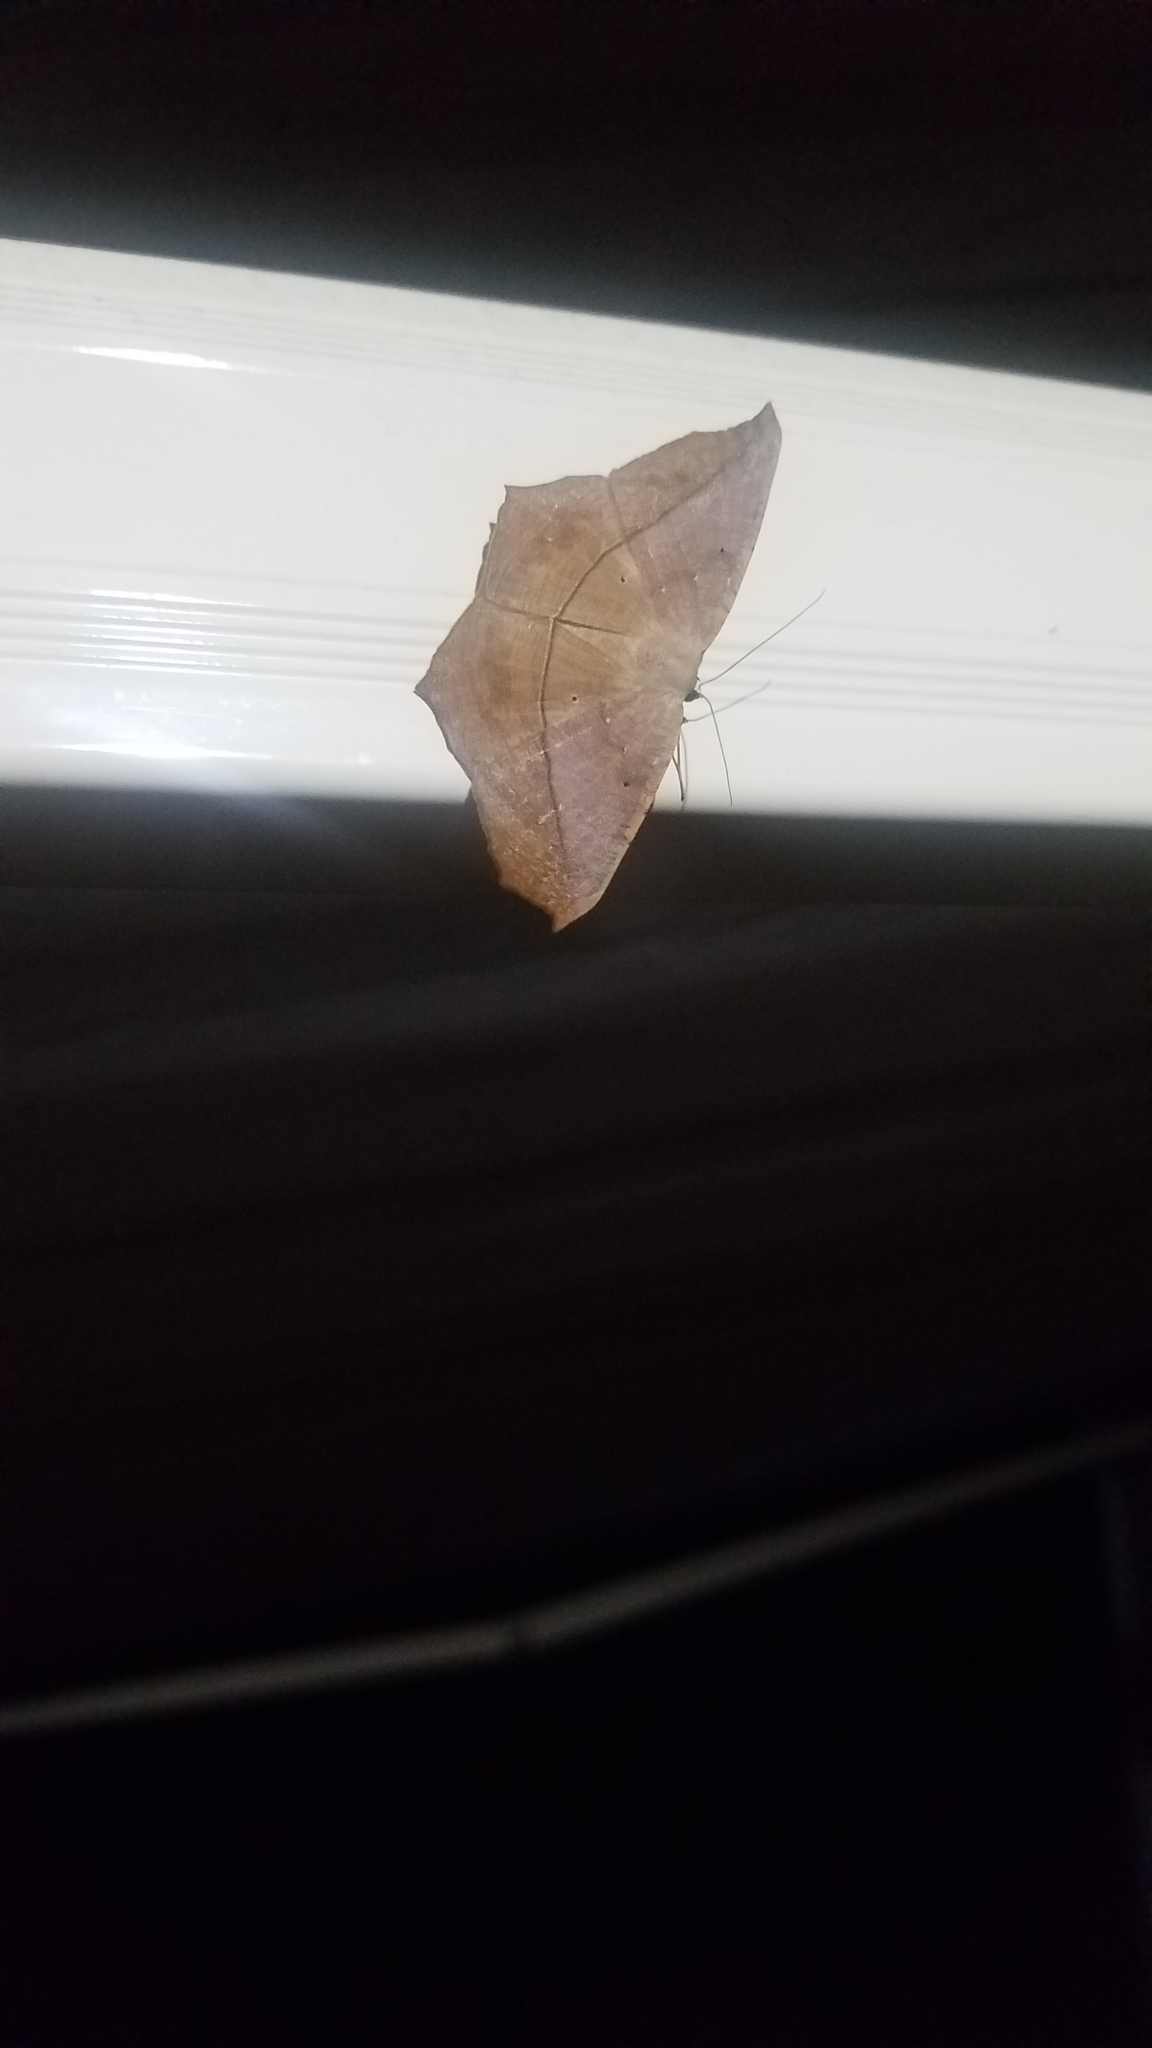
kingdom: Animalia
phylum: Arthropoda
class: Insecta
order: Lepidoptera
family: Geometridae
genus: Prochoerodes
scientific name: Prochoerodes lineola
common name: Large maple spanworm
